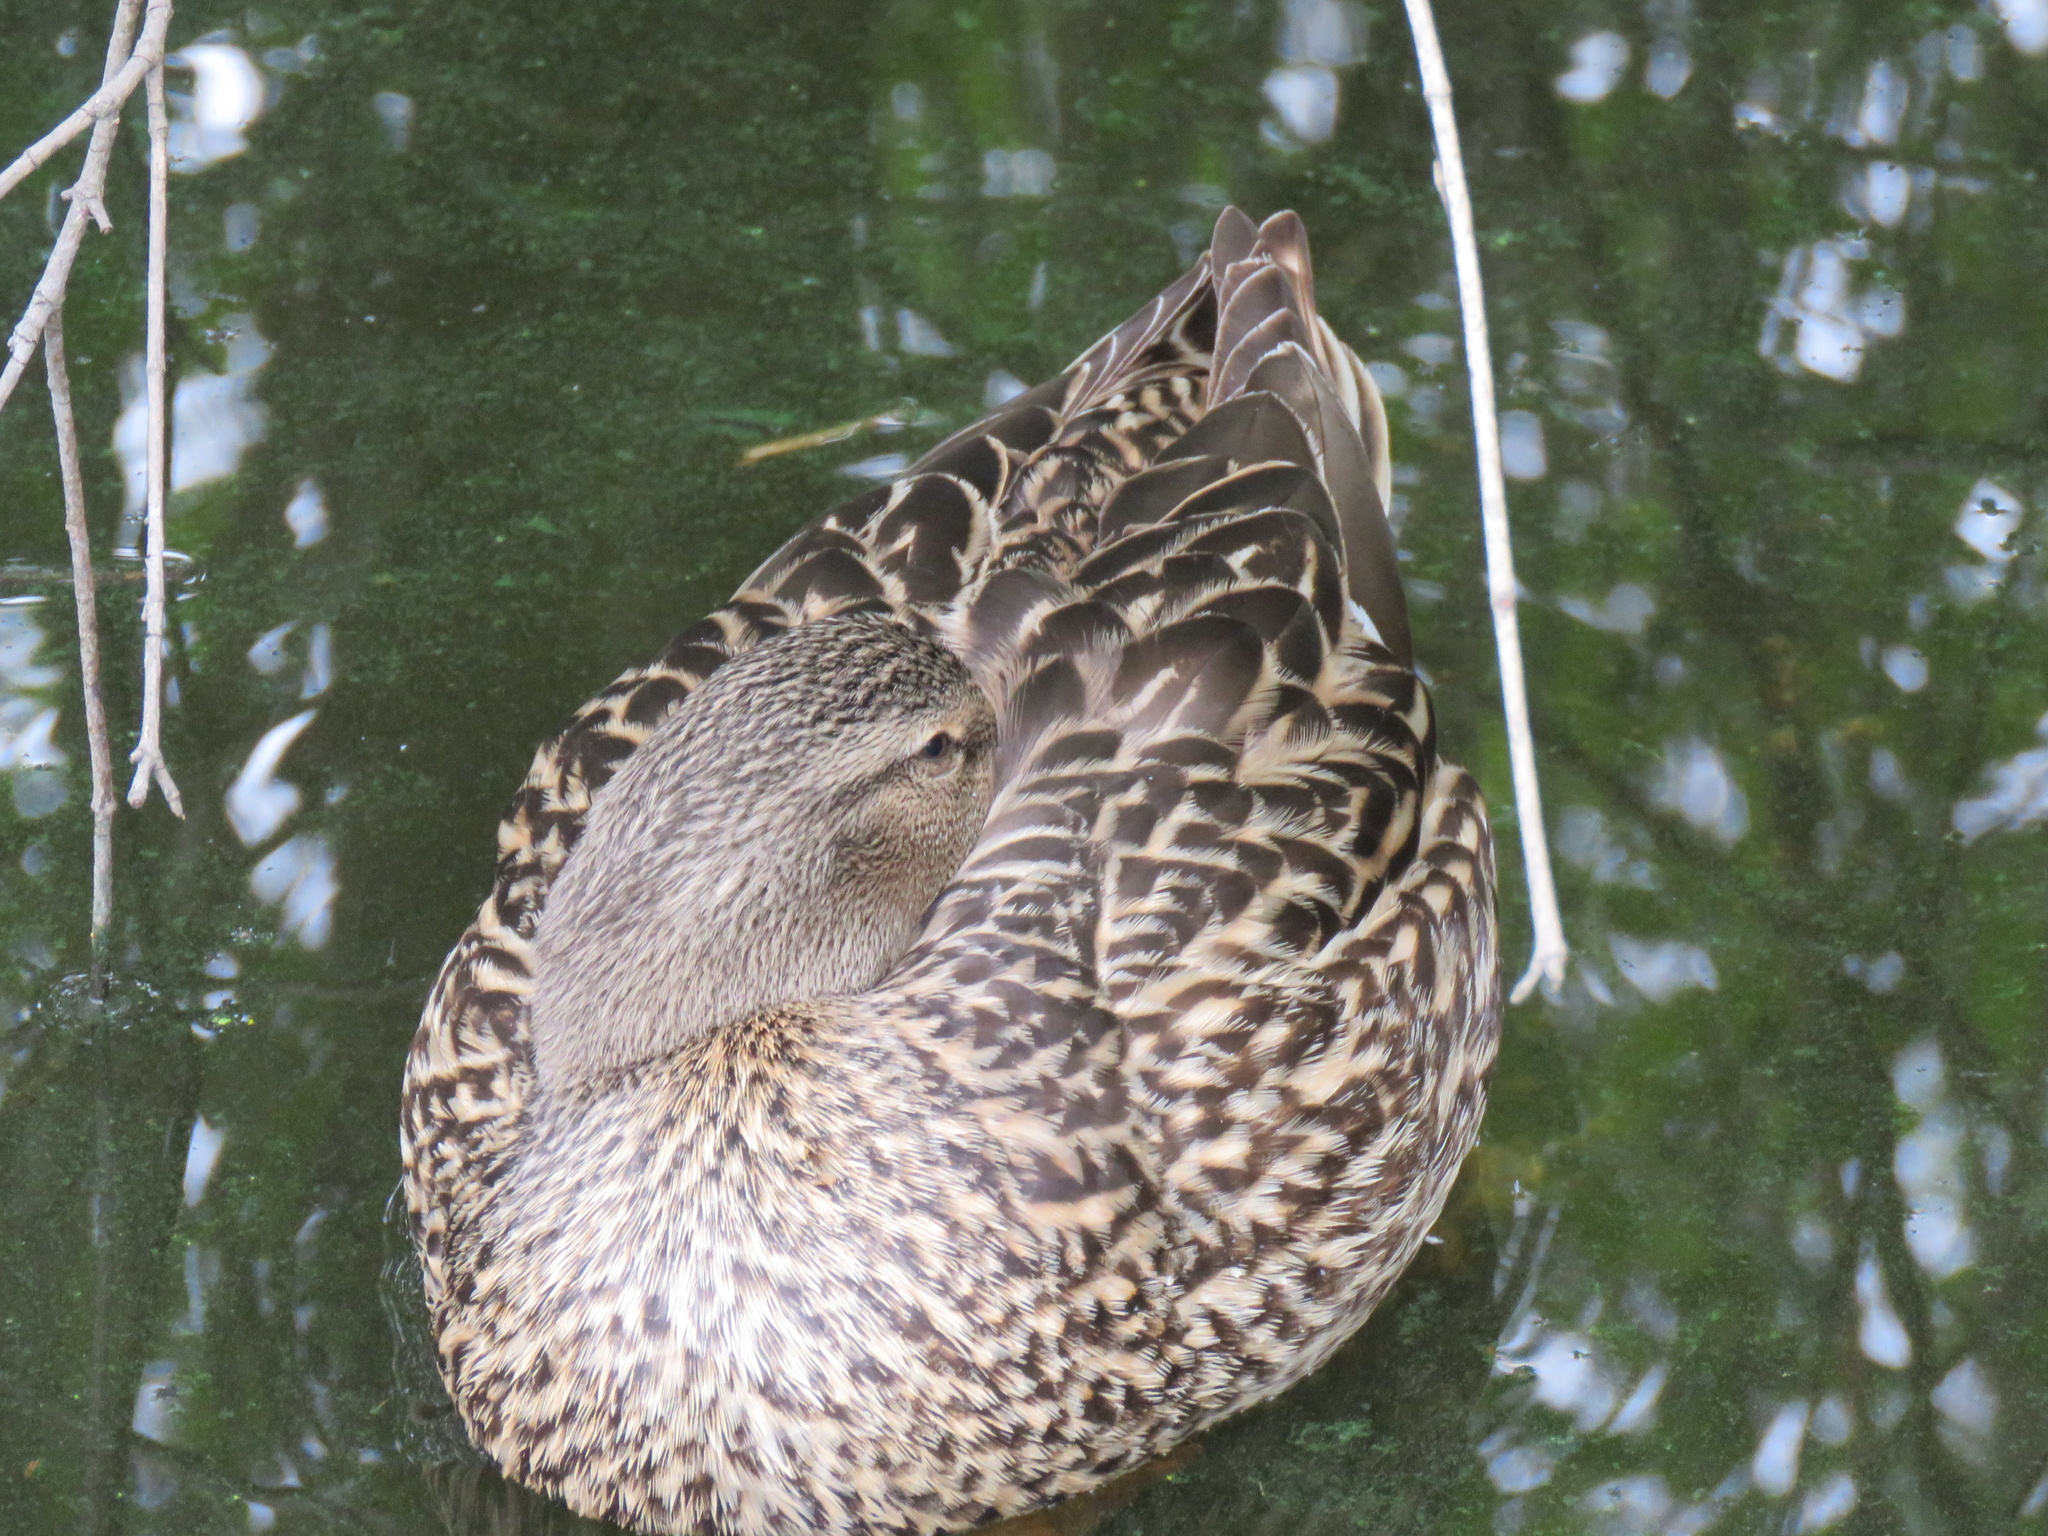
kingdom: Animalia
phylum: Chordata
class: Aves
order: Anseriformes
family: Anatidae
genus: Anas
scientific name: Anas platyrhynchos
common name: Mallard
